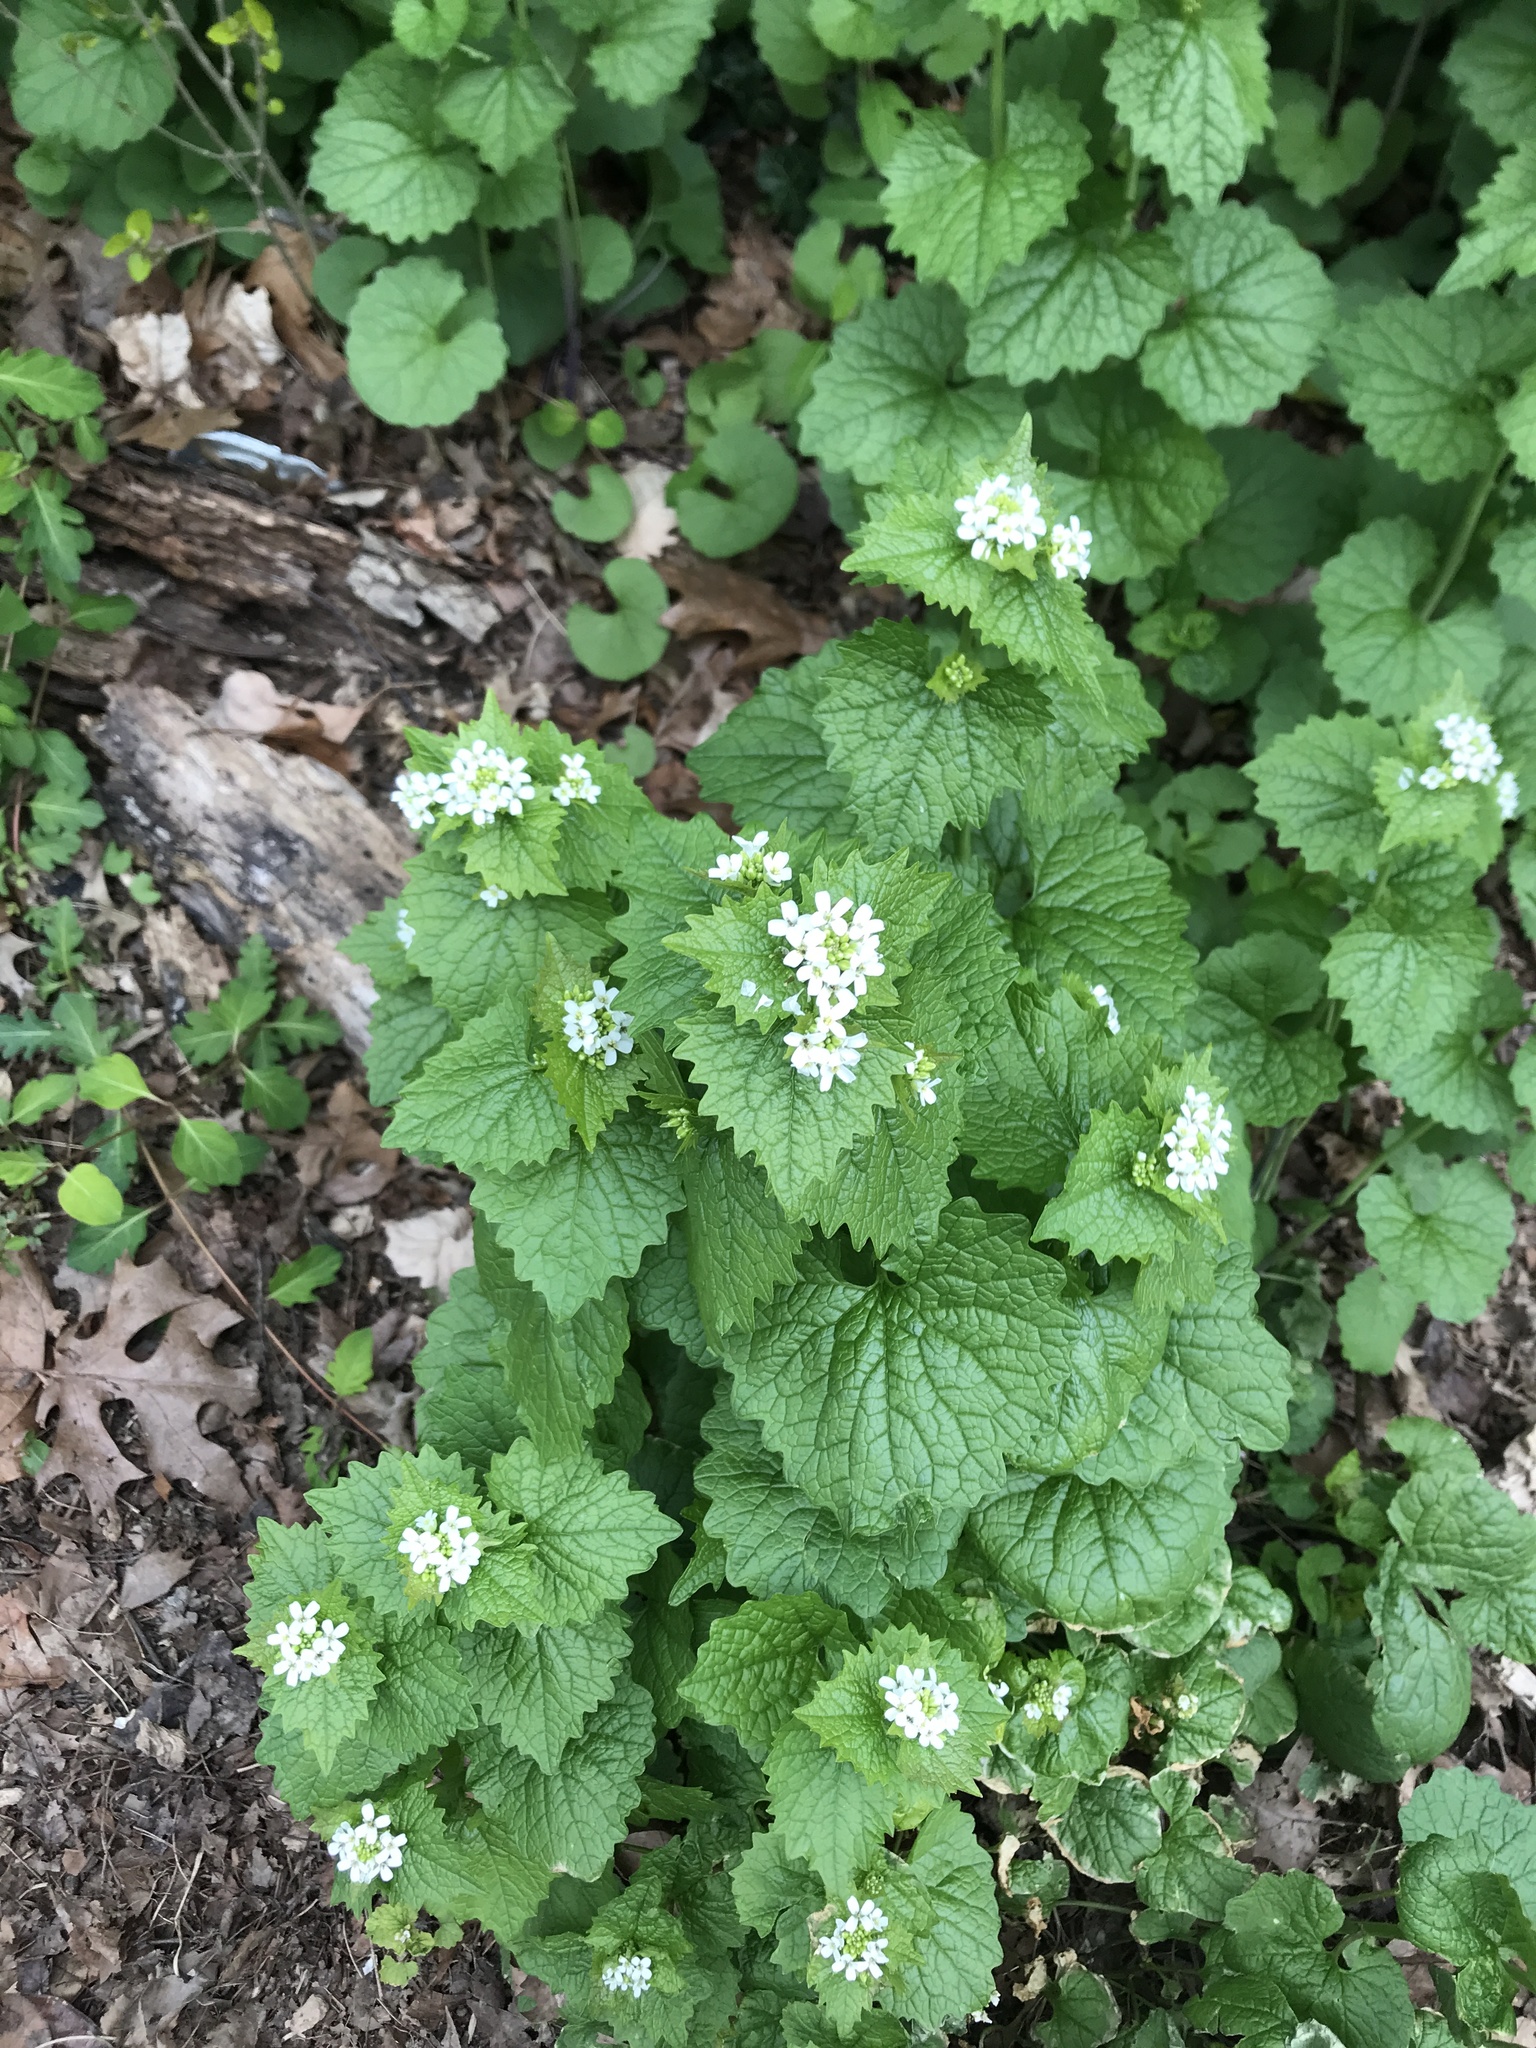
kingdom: Plantae
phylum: Tracheophyta
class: Magnoliopsida
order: Brassicales
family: Brassicaceae
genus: Alliaria
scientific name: Alliaria petiolata
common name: Garlic mustard
